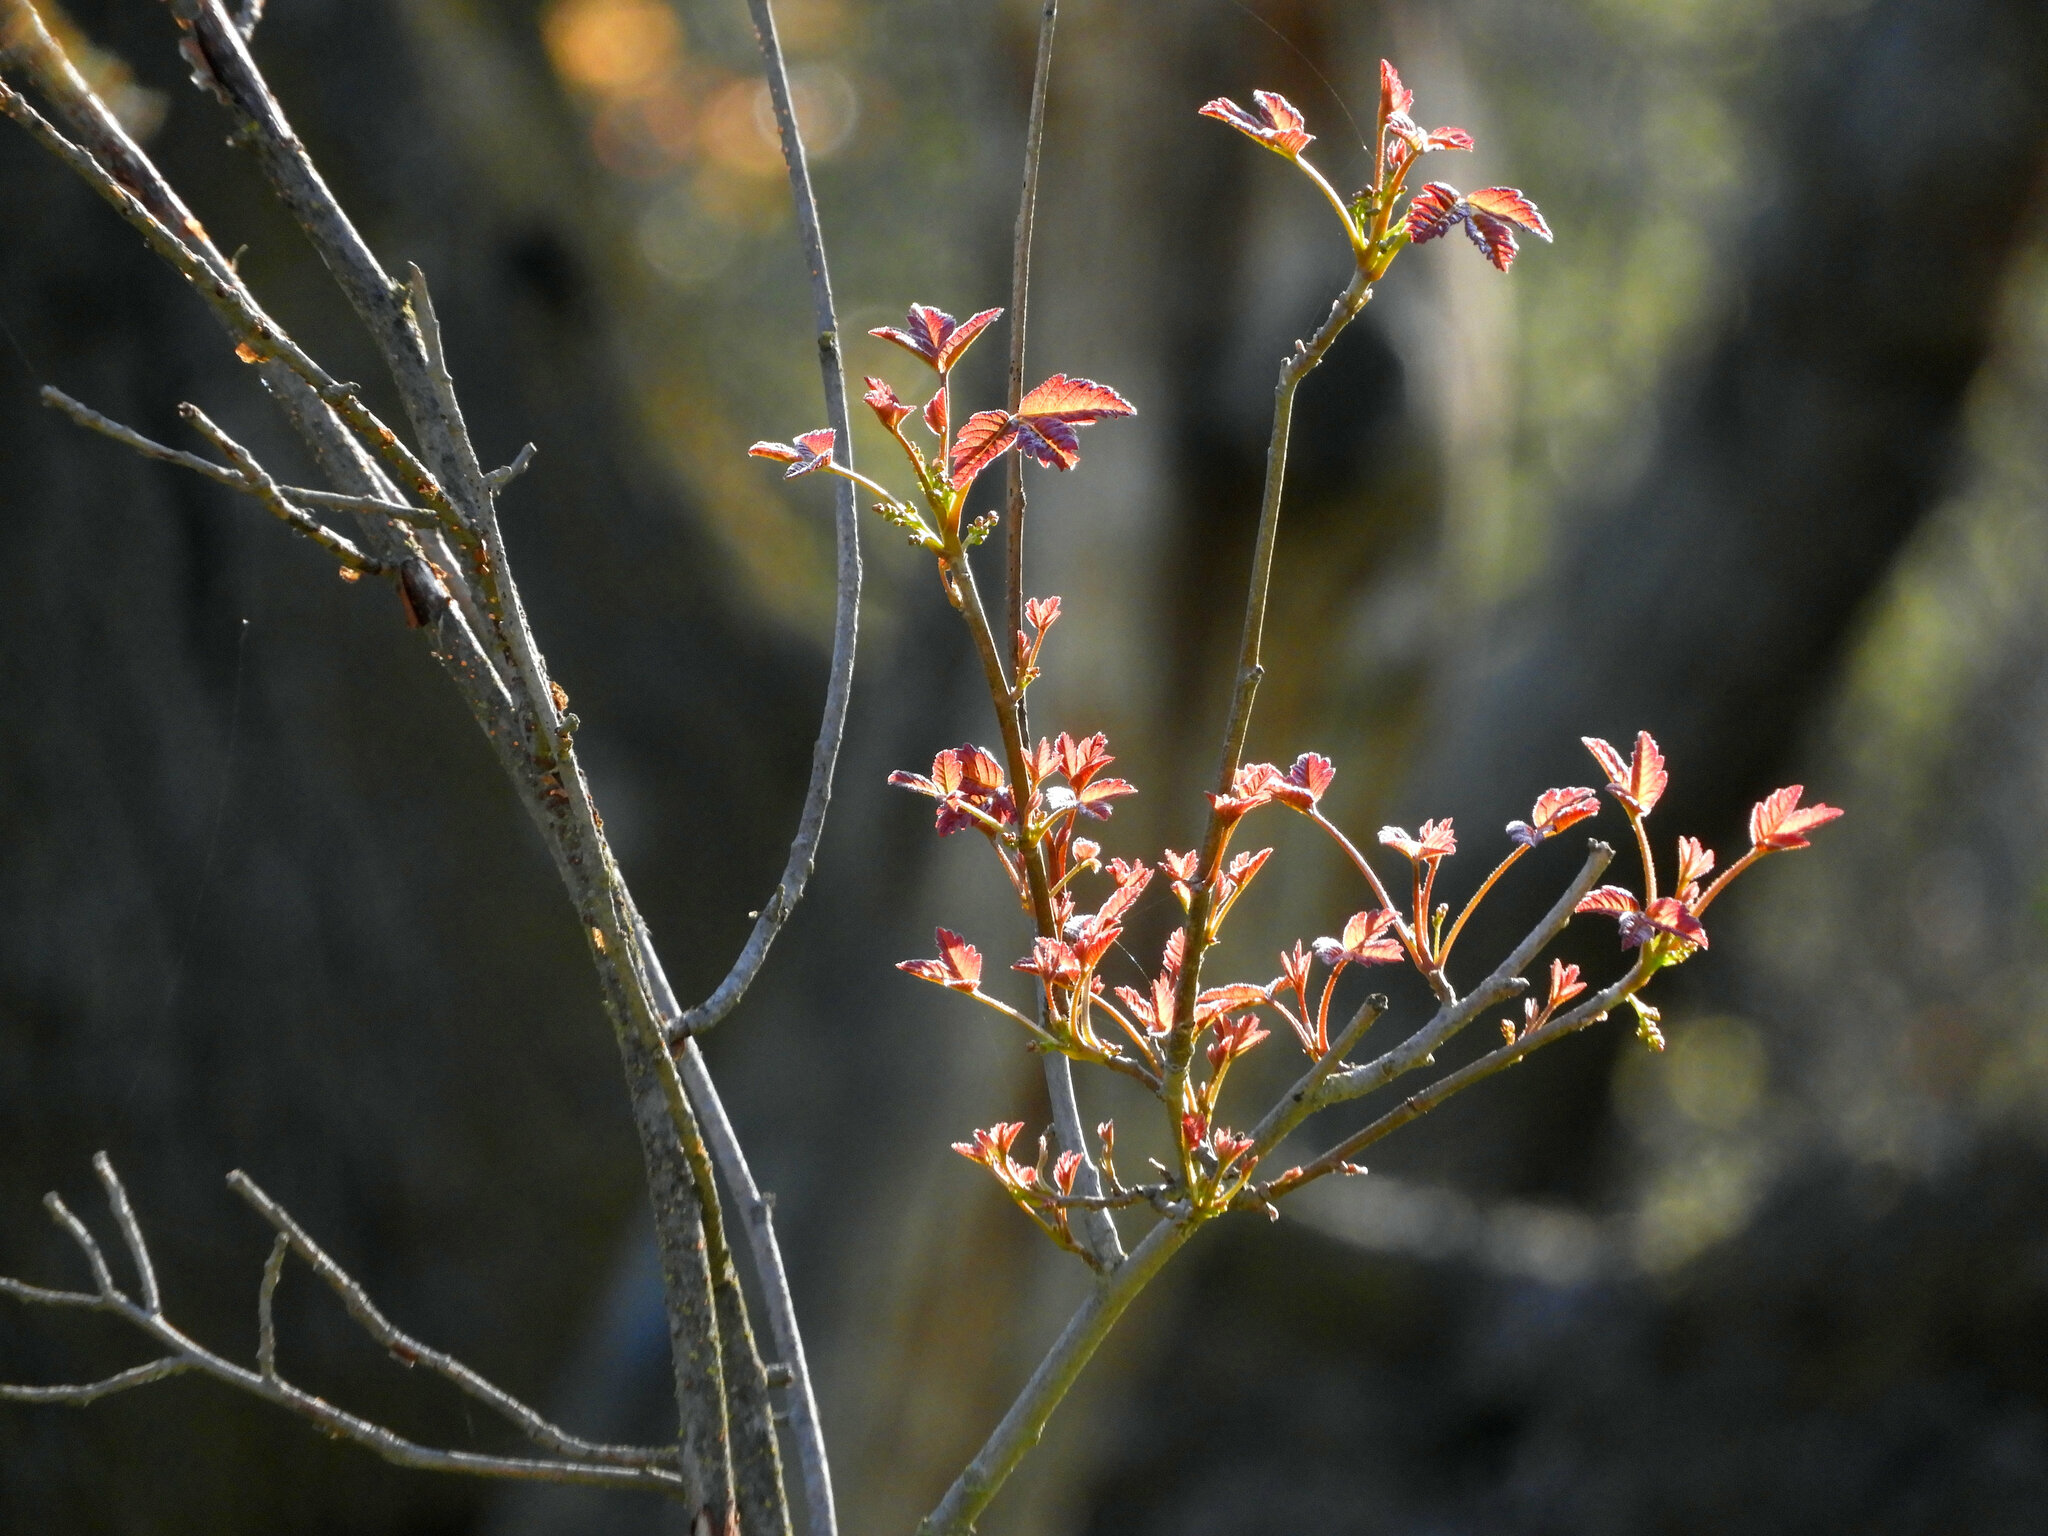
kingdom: Plantae
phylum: Tracheophyta
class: Magnoliopsida
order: Sapindales
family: Anacardiaceae
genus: Toxicodendron
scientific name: Toxicodendron diversilobum
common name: Pacific poison-oak
